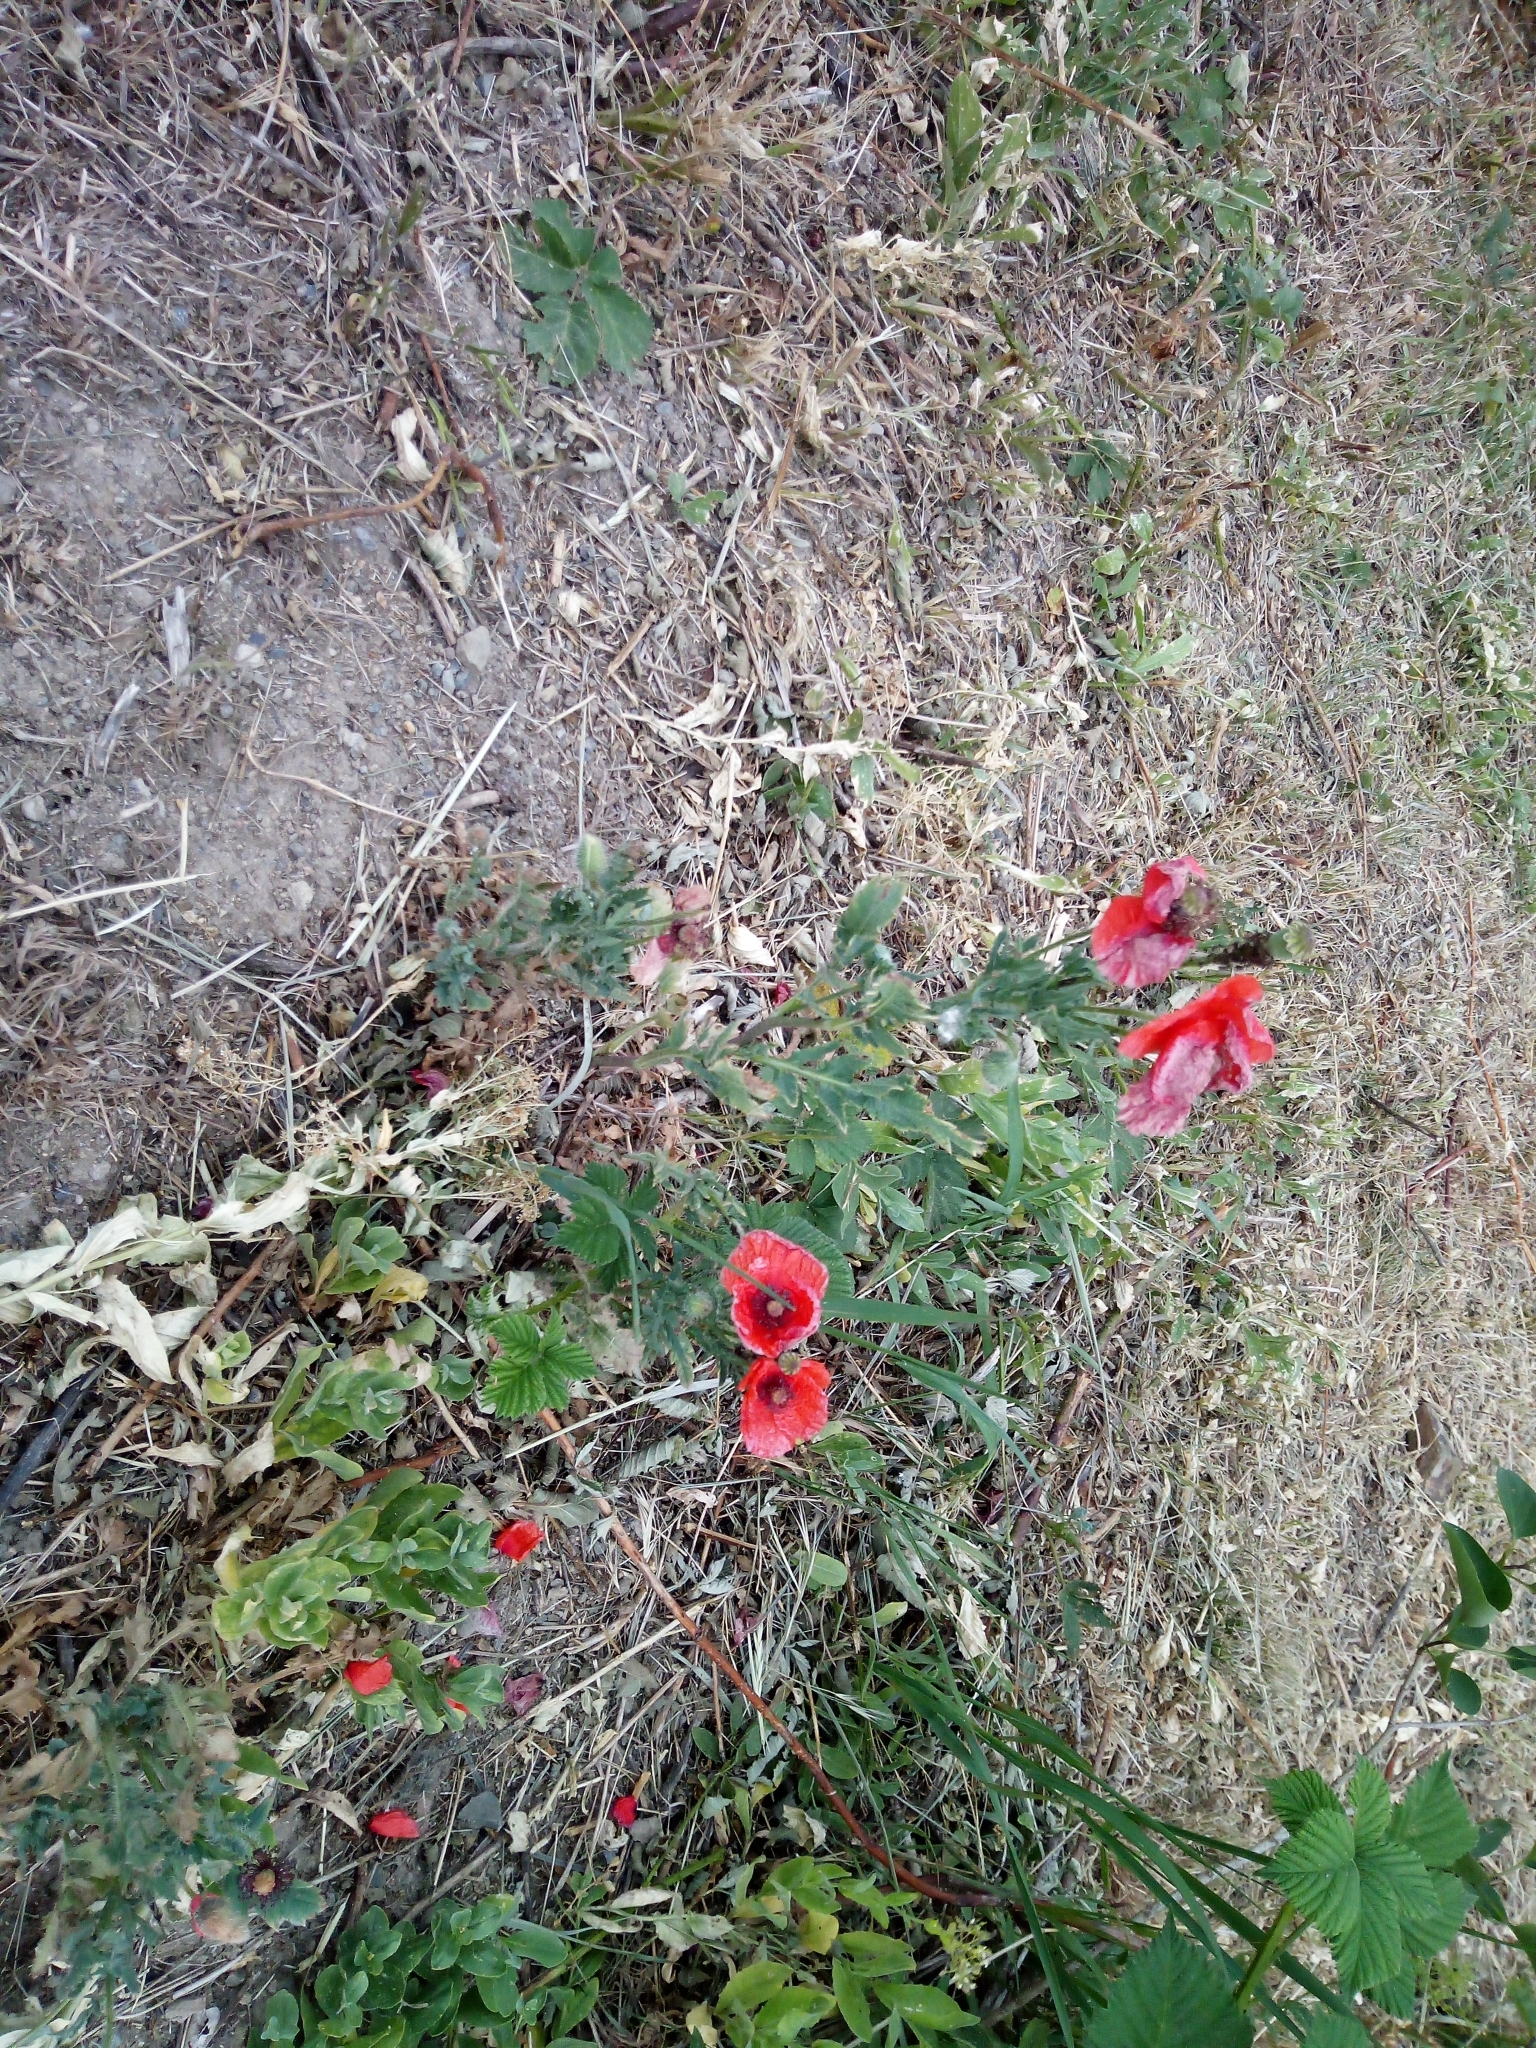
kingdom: Plantae
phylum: Tracheophyta
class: Magnoliopsida
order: Ranunculales
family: Papaveraceae
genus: Papaver
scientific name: Papaver rhoeas
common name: Corn poppy
